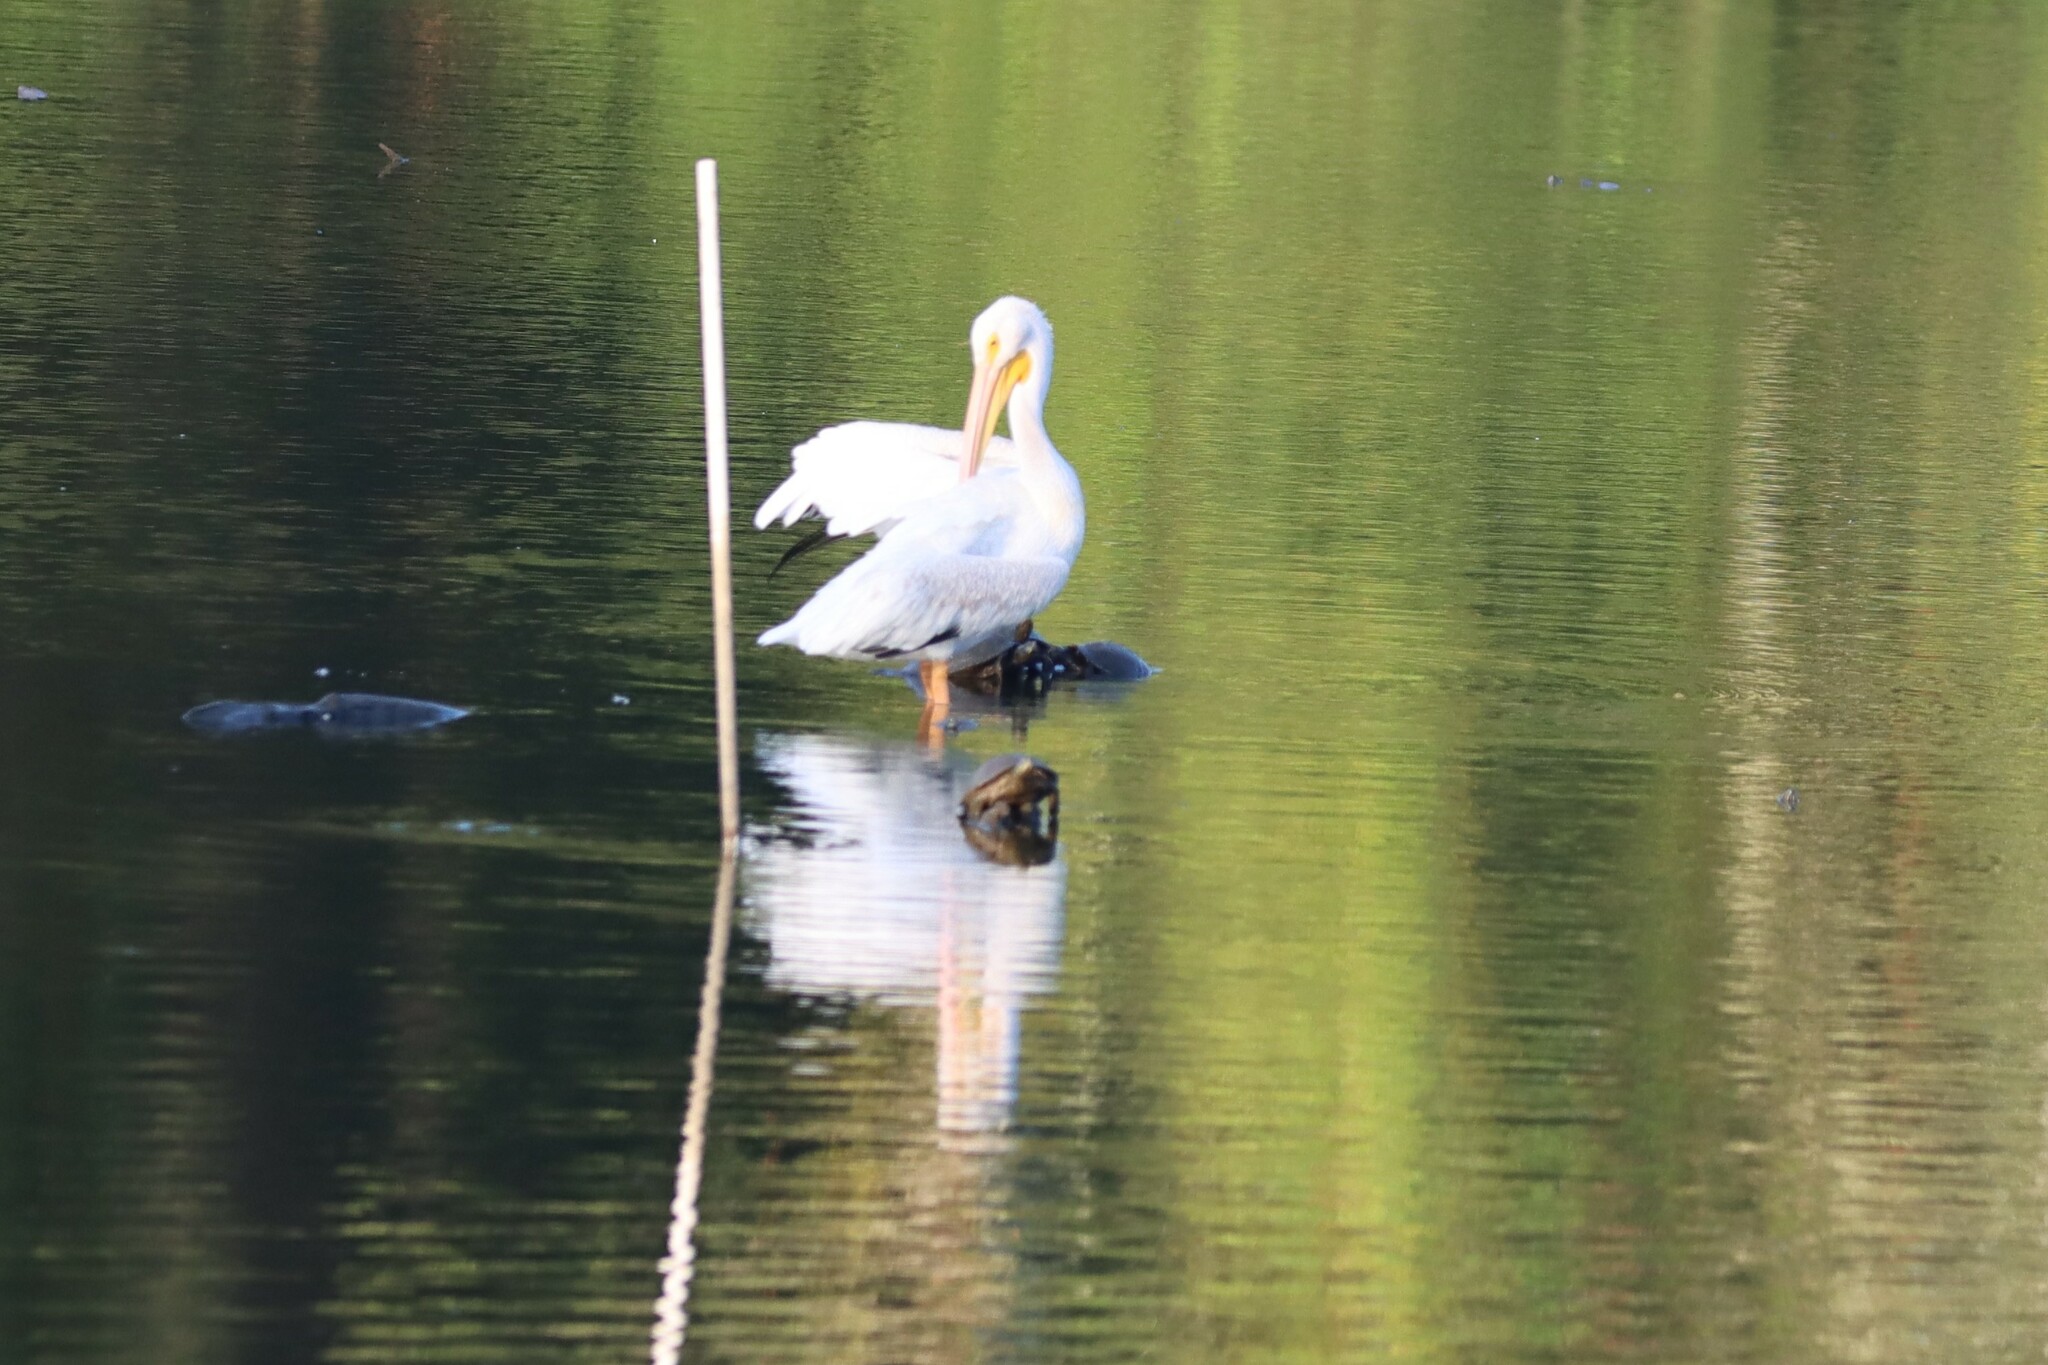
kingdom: Animalia
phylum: Chordata
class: Aves
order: Pelecaniformes
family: Pelecanidae
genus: Pelecanus
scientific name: Pelecanus erythrorhynchos
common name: American white pelican
